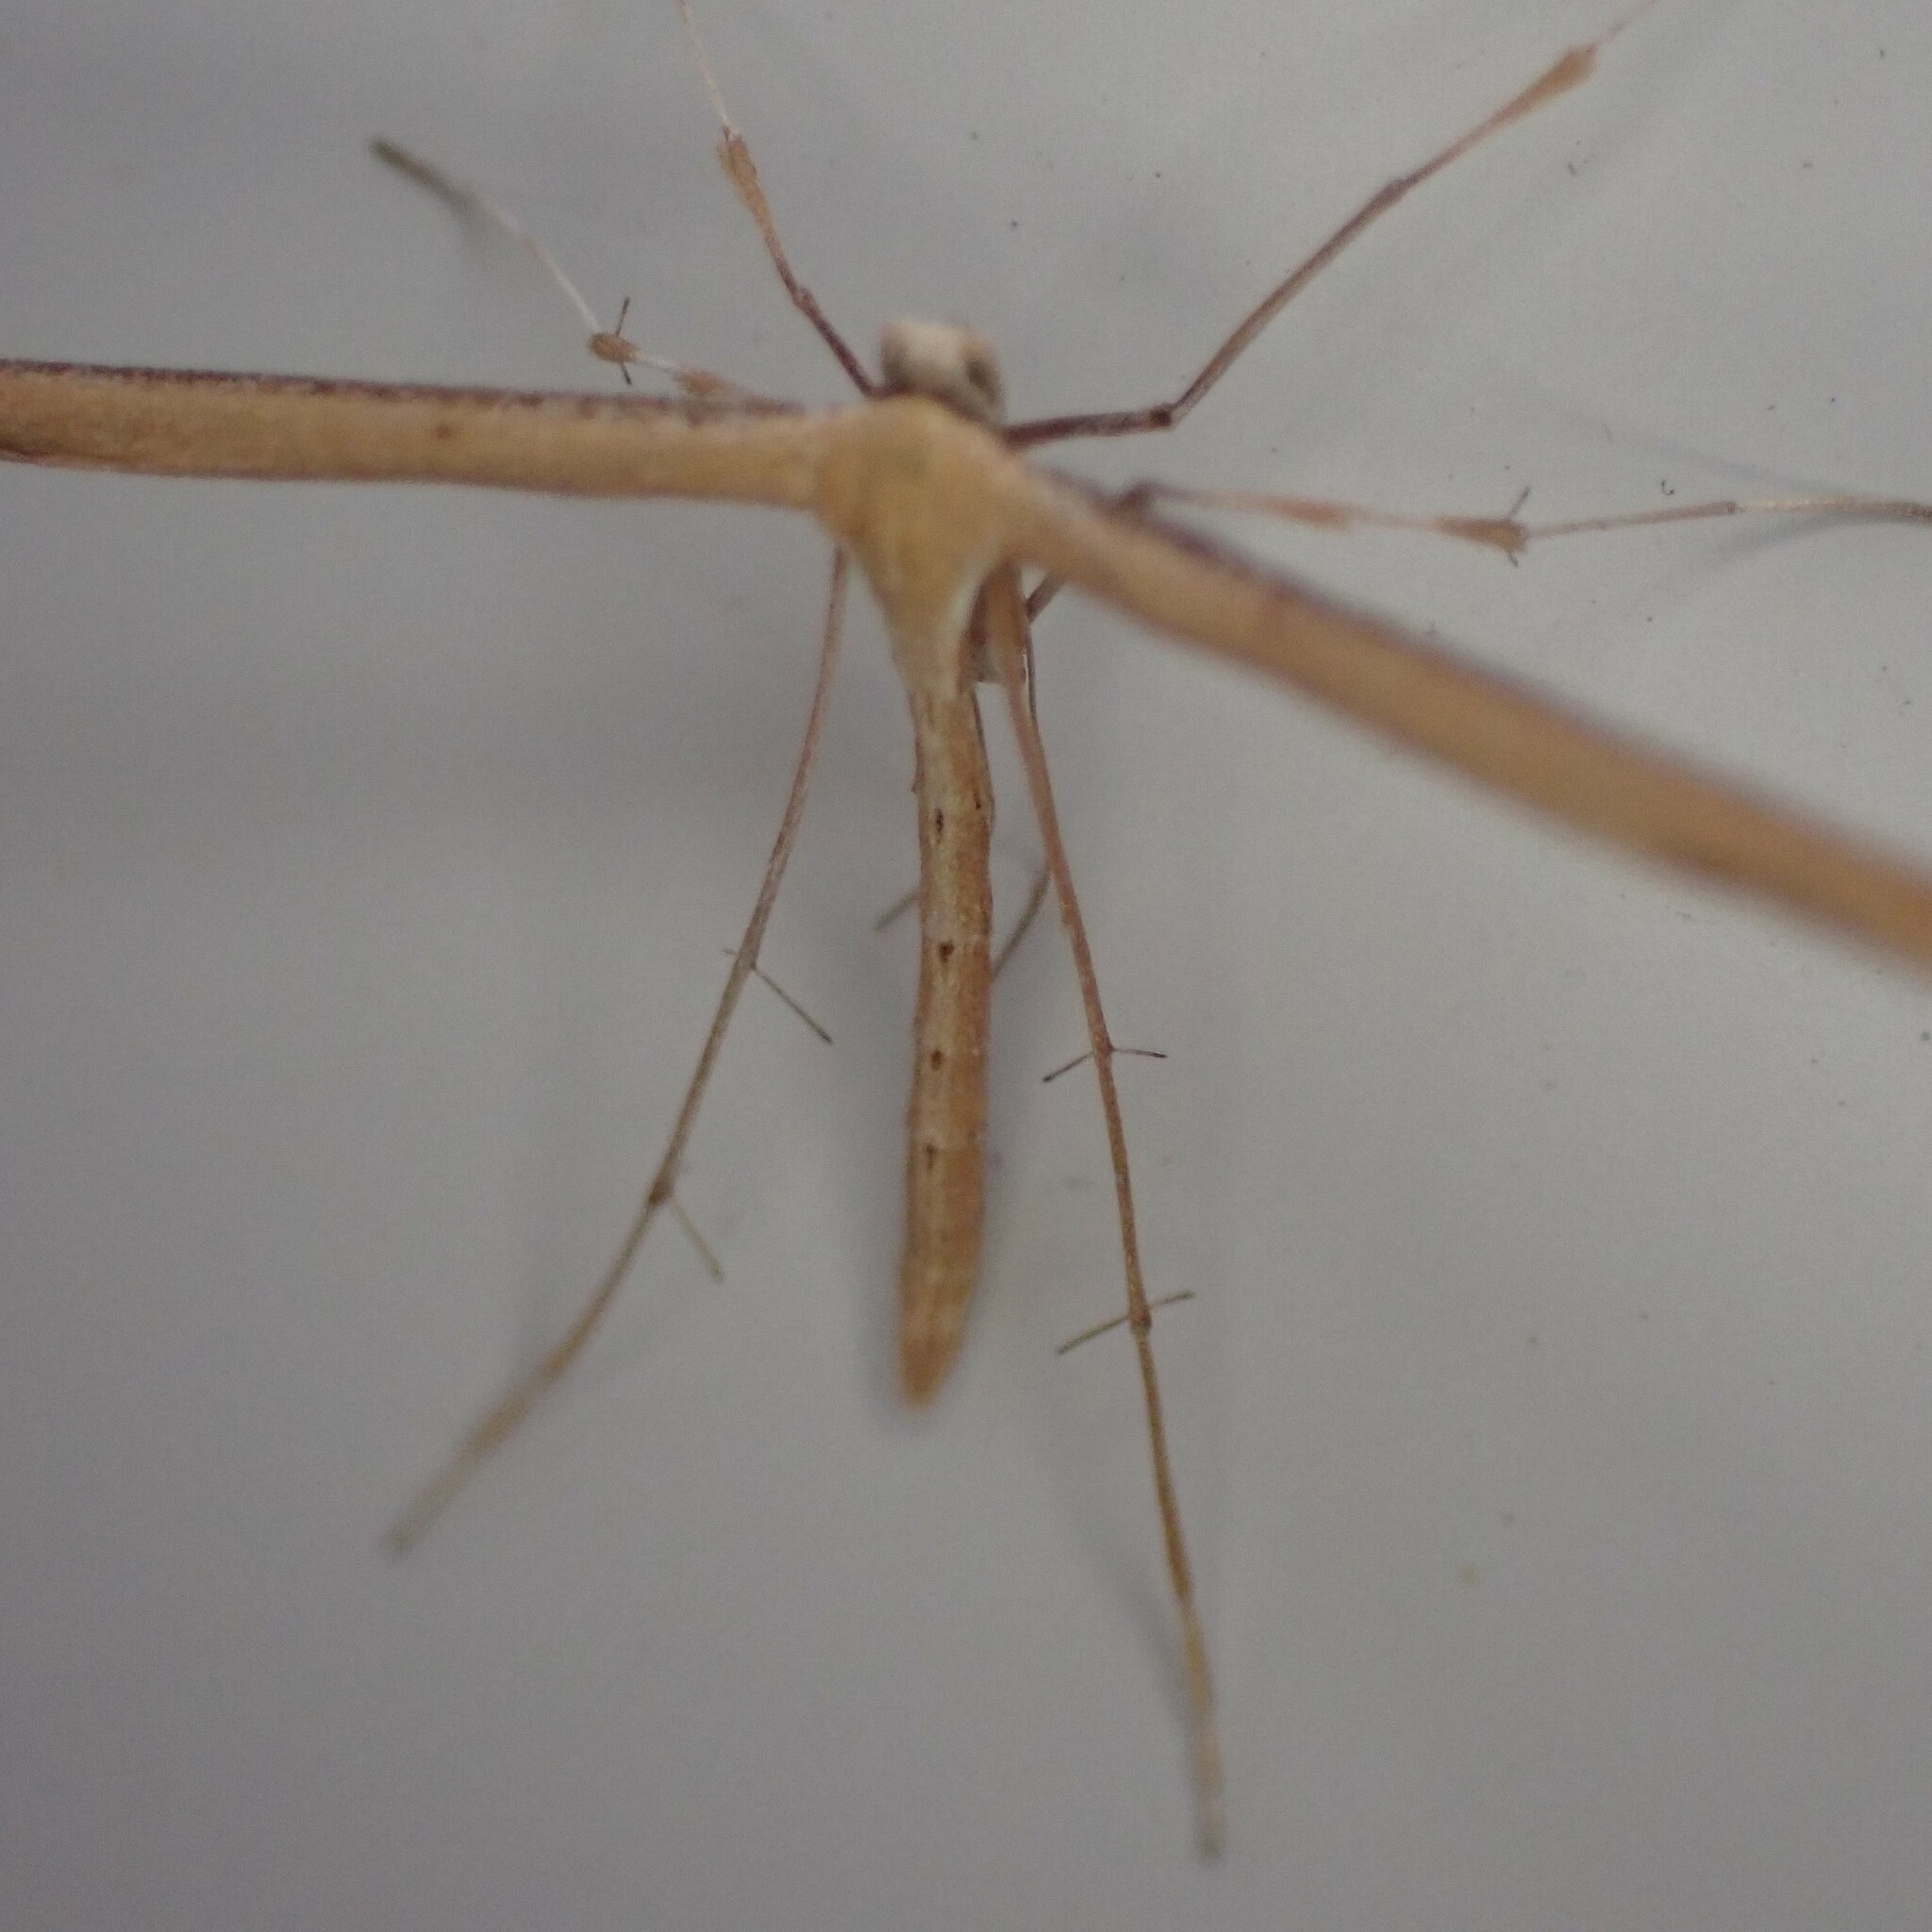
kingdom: Animalia
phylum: Arthropoda
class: Insecta
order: Lepidoptera
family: Pterophoridae
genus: Emmelina
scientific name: Emmelina monodactyla
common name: Common plume
